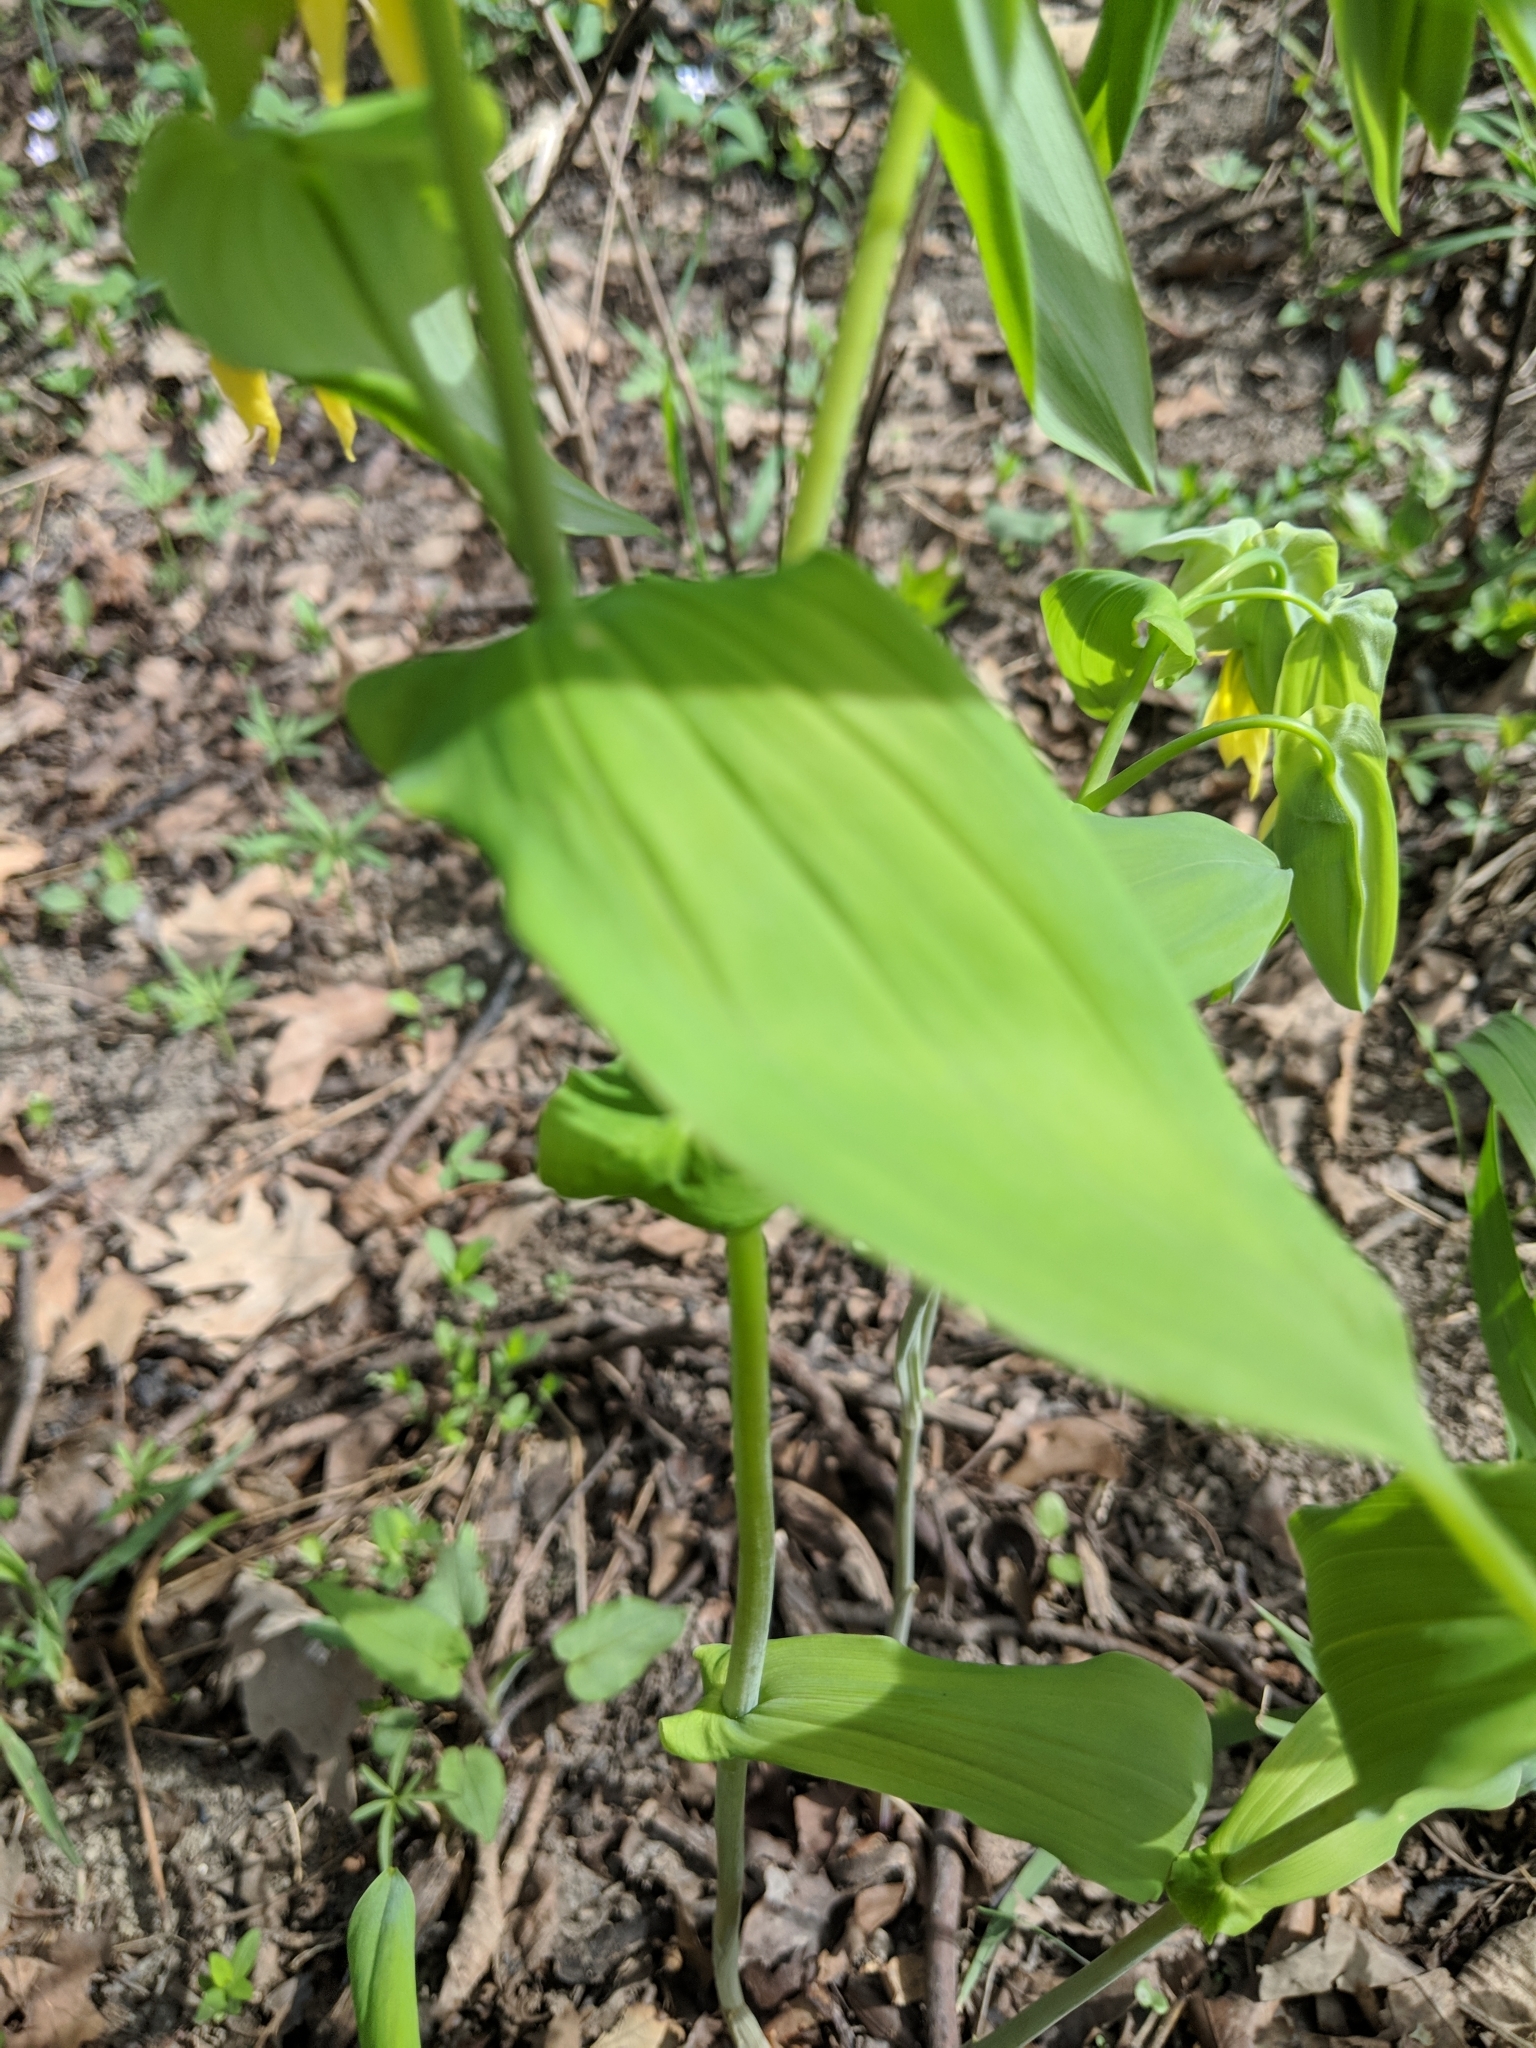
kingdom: Plantae
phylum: Tracheophyta
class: Liliopsida
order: Liliales
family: Colchicaceae
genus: Uvularia
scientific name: Uvularia grandiflora
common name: Bellwort
